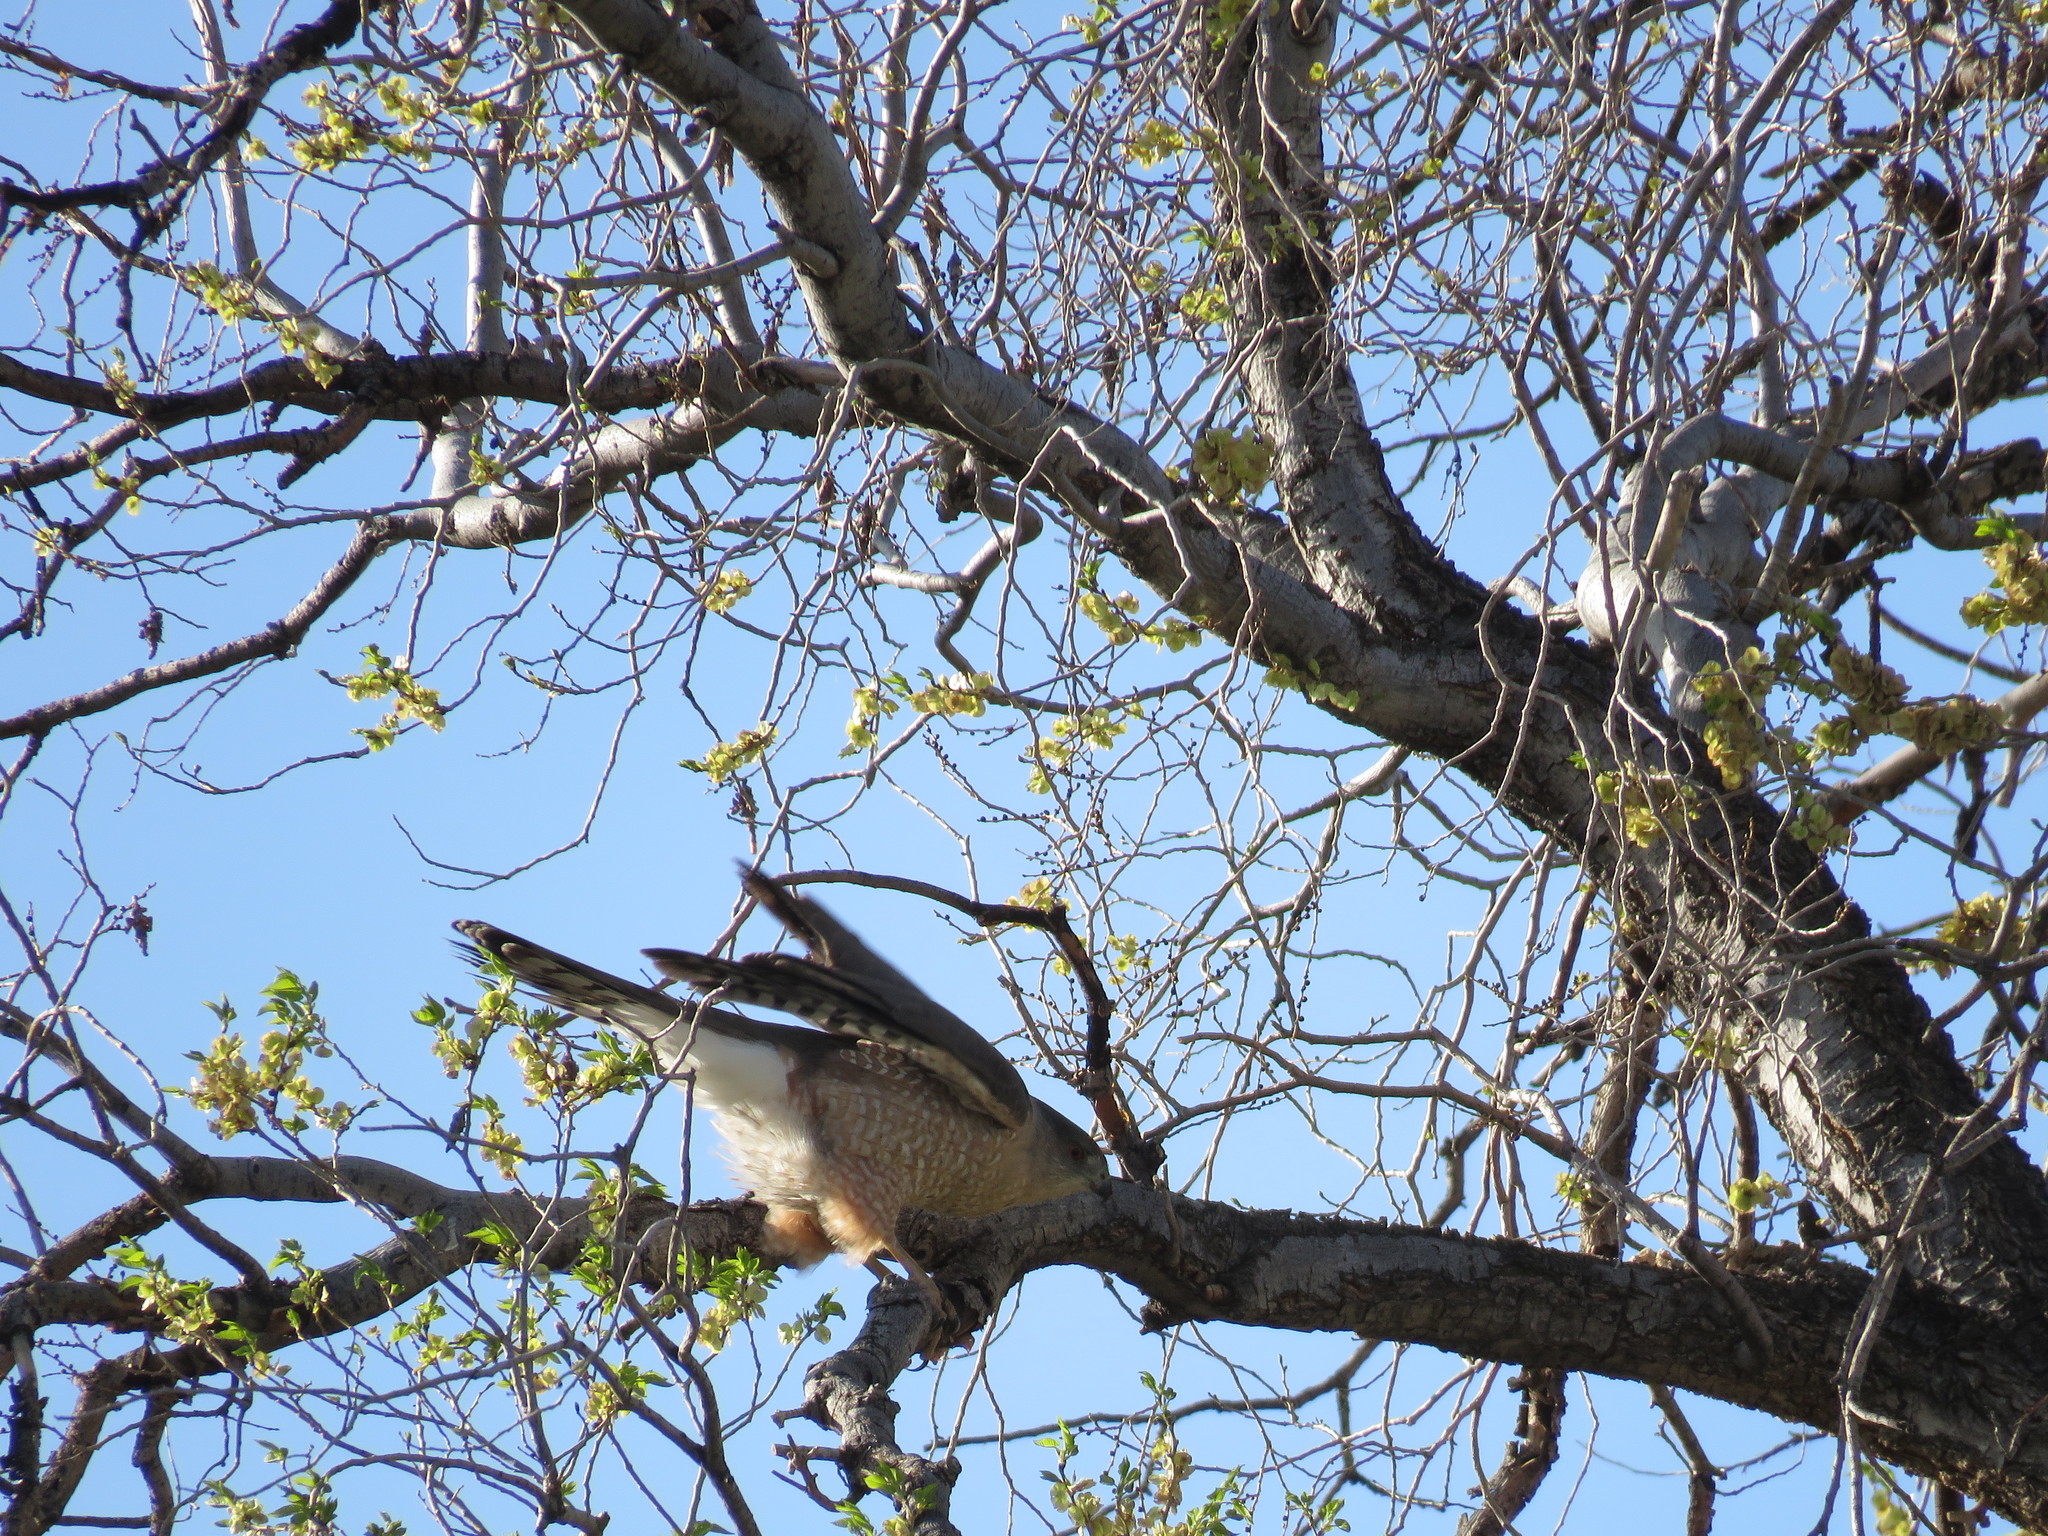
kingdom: Animalia
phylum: Chordata
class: Aves
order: Accipitriformes
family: Accipitridae
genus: Accipiter
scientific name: Accipiter cooperii
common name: Cooper's hawk
